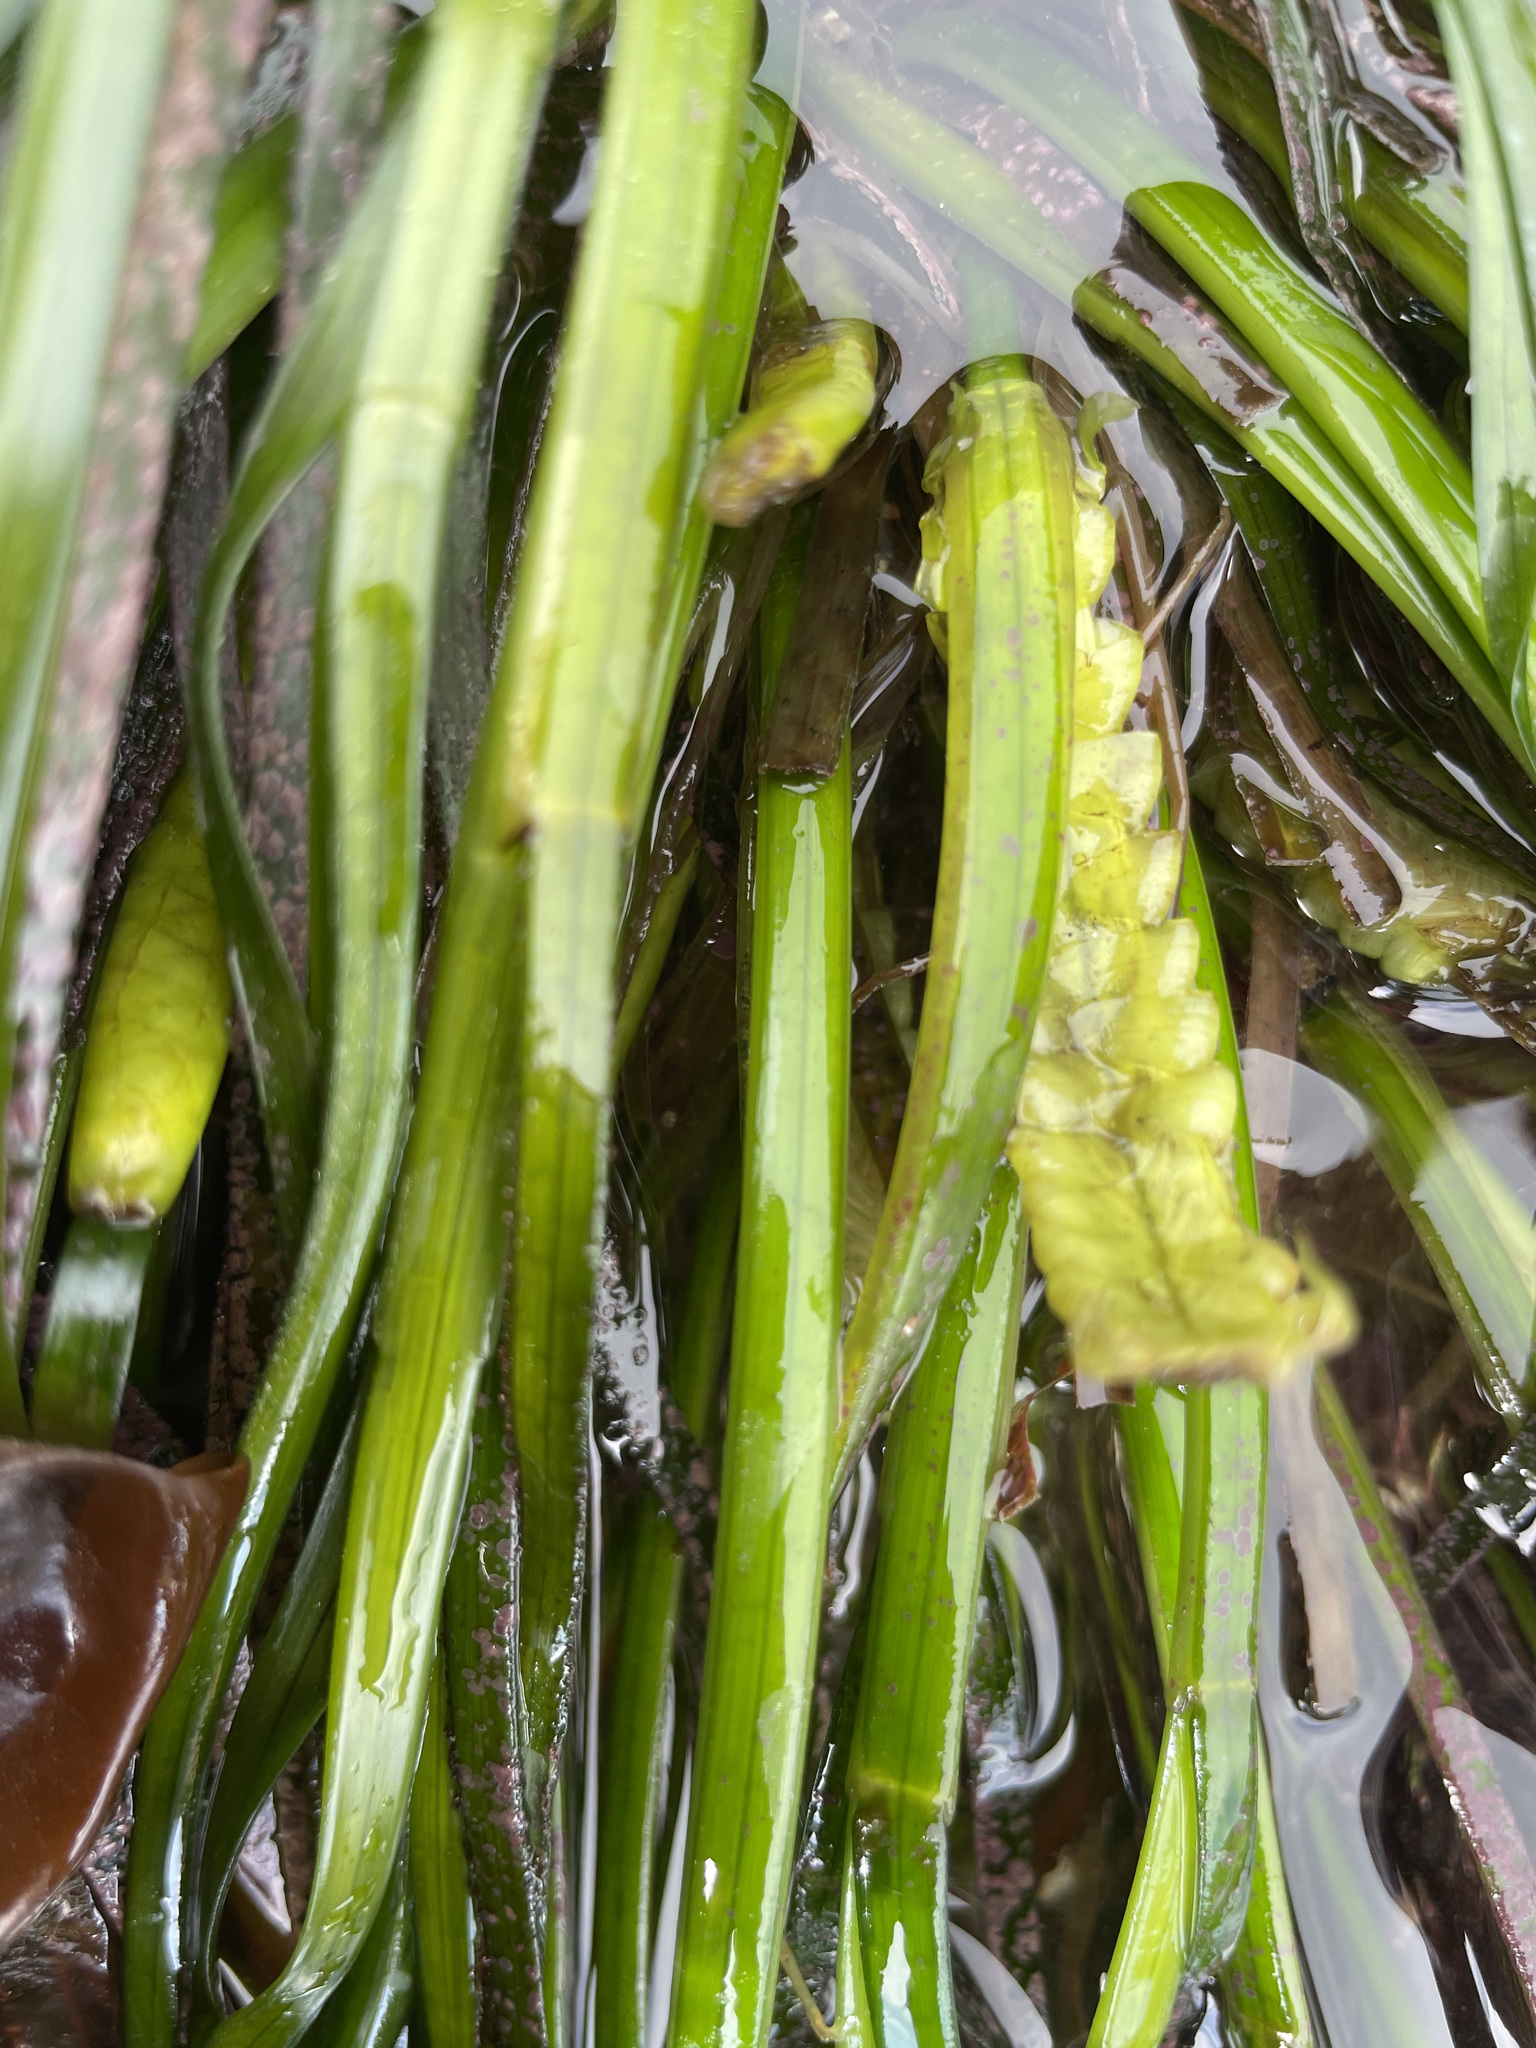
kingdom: Plantae
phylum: Tracheophyta
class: Liliopsida
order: Alismatales
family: Zosteraceae
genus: Phyllospadix
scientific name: Phyllospadix scouleri
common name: Species code: ps
